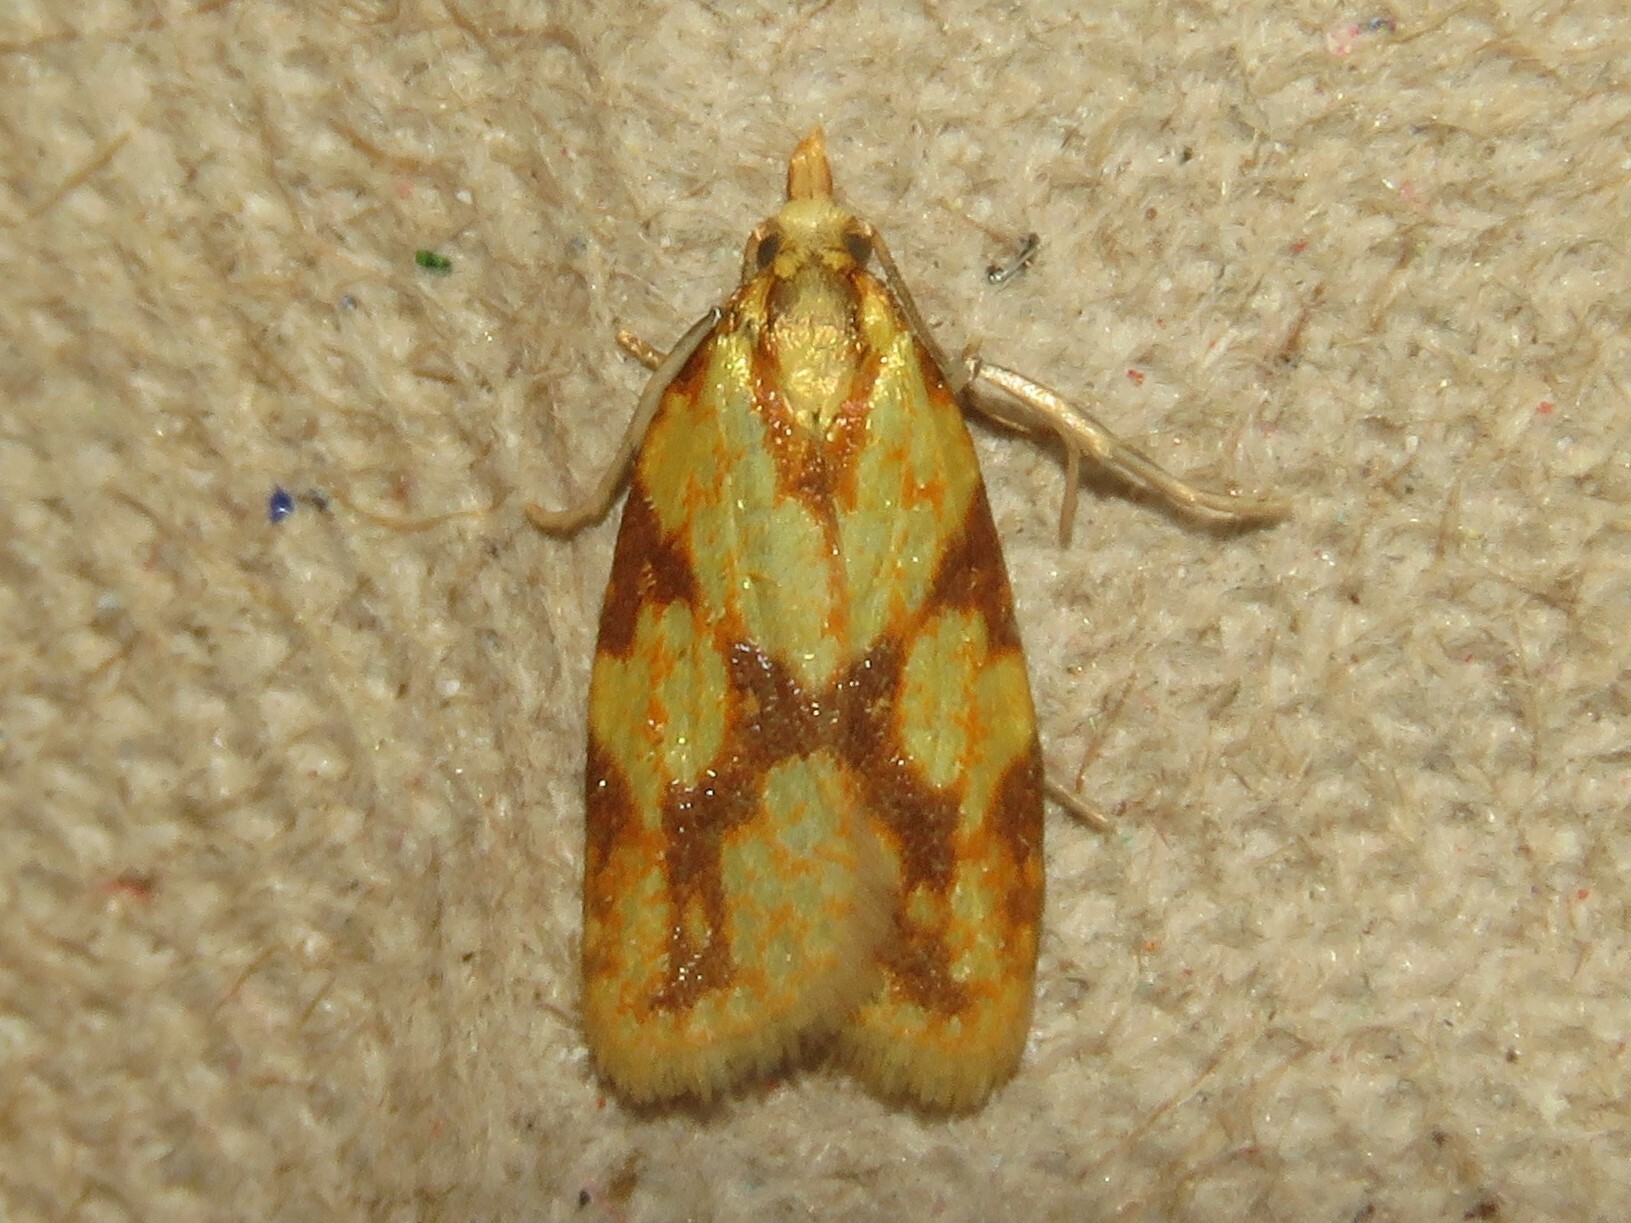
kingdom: Animalia
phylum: Arthropoda
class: Insecta
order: Lepidoptera
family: Tortricidae
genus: Sparganothis
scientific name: Sparganothis sulfureana
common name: Sparganothis fruitworm moth
